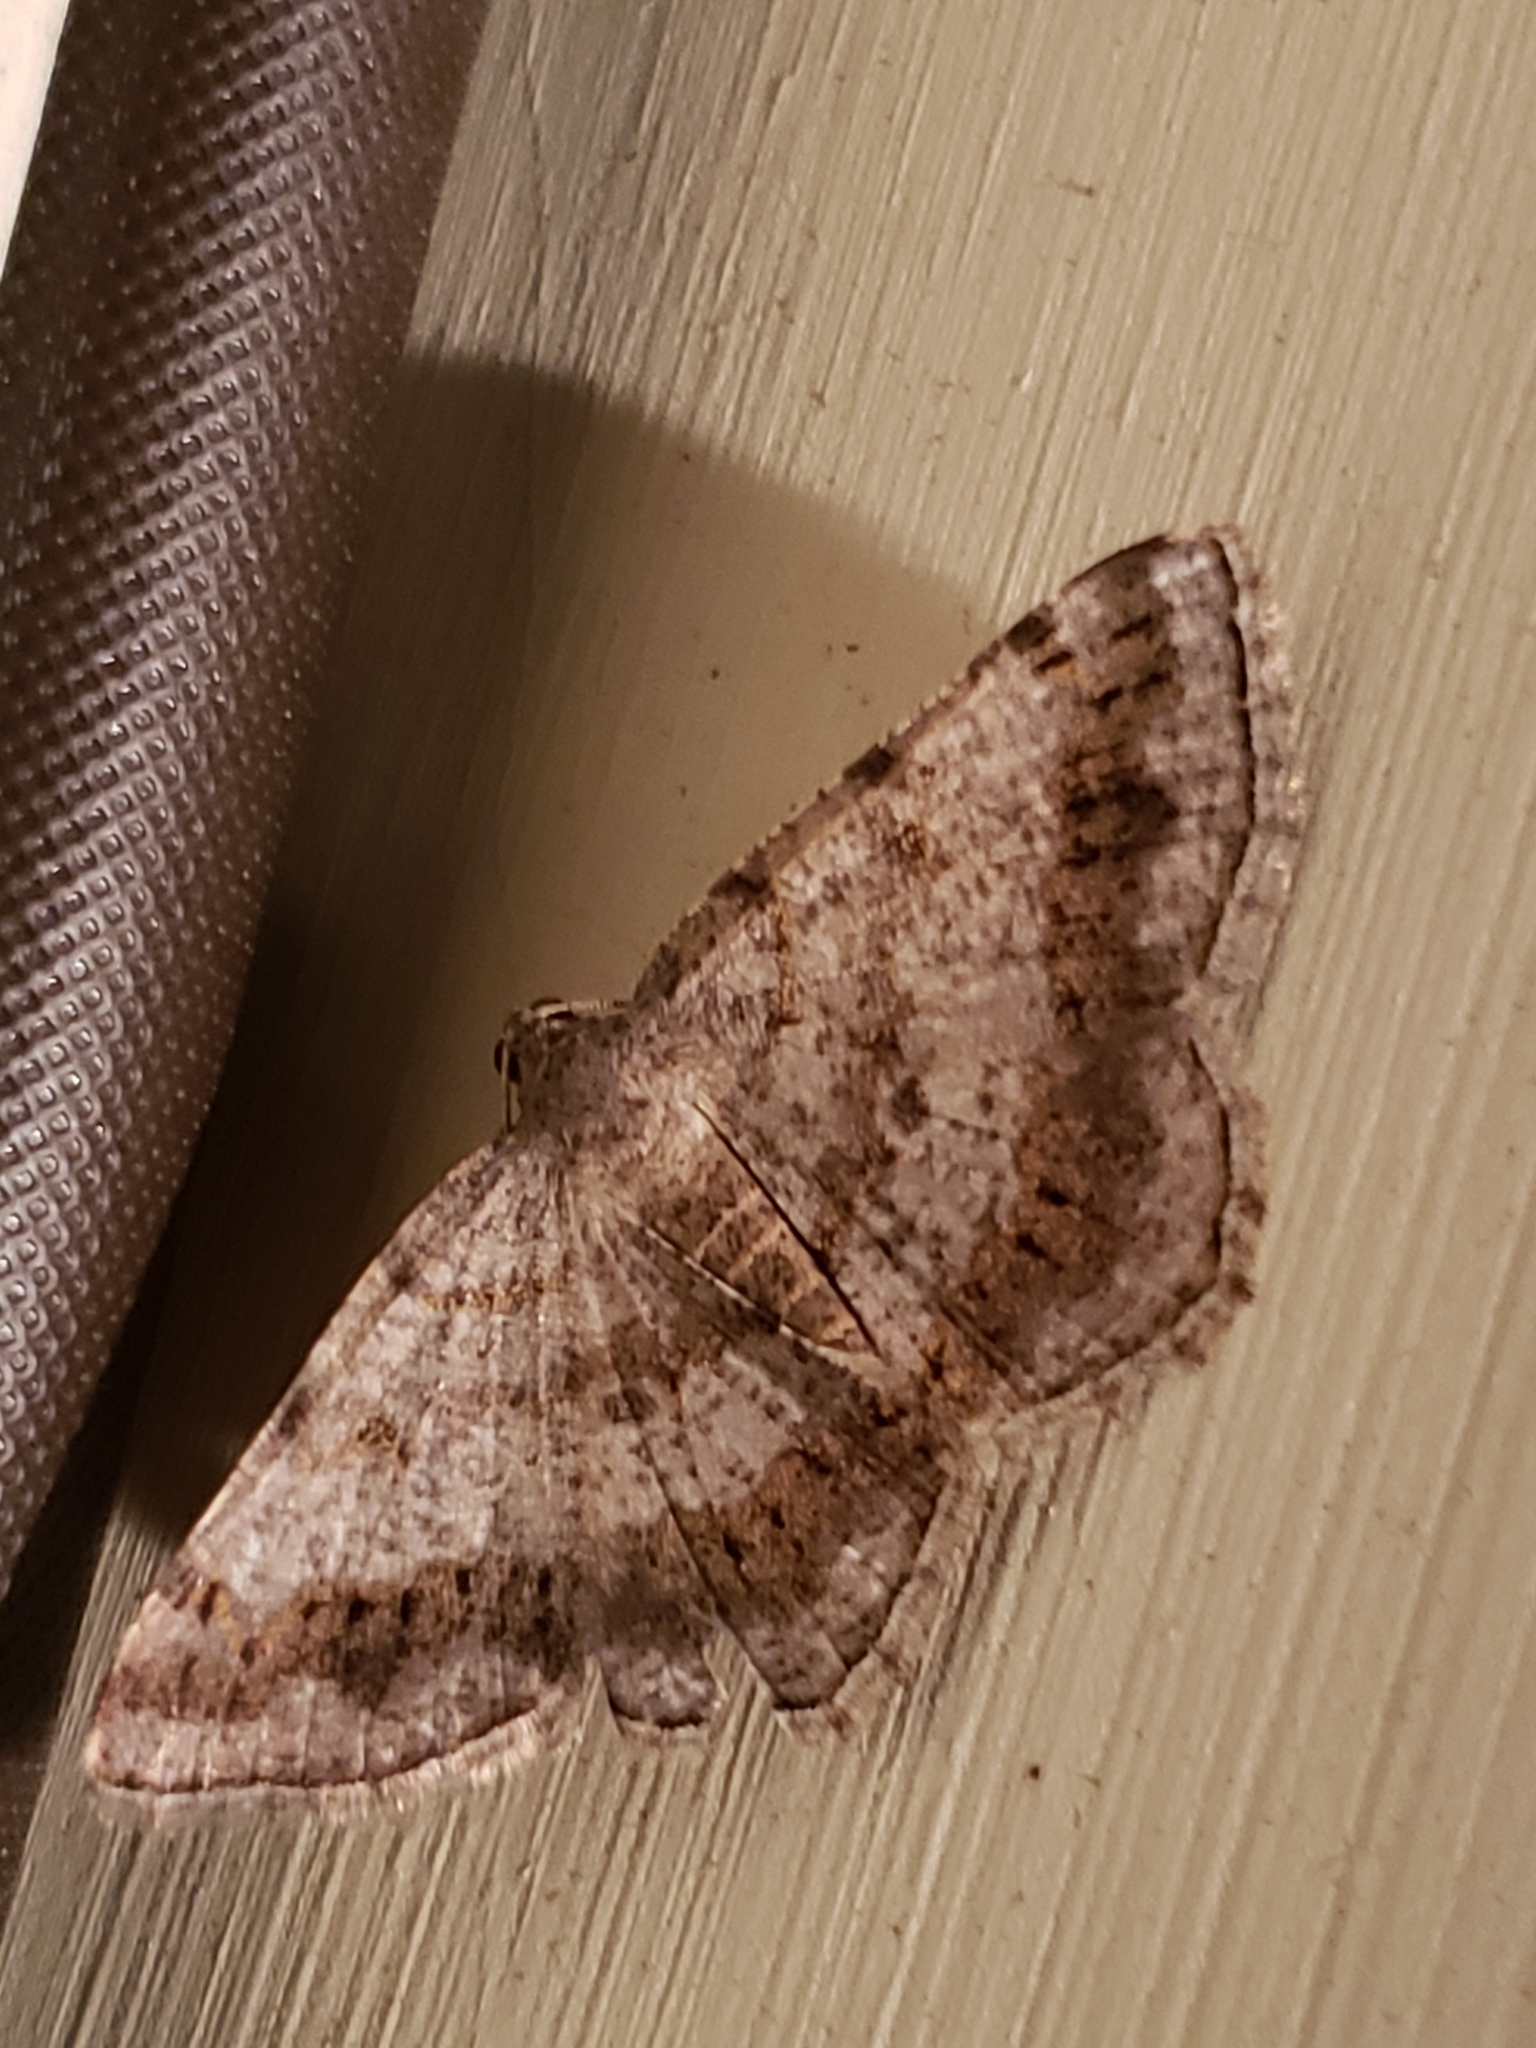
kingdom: Animalia
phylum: Arthropoda
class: Insecta
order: Lepidoptera
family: Geometridae
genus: Digrammia
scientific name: Digrammia ocellinata
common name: Faint-spotted angle
